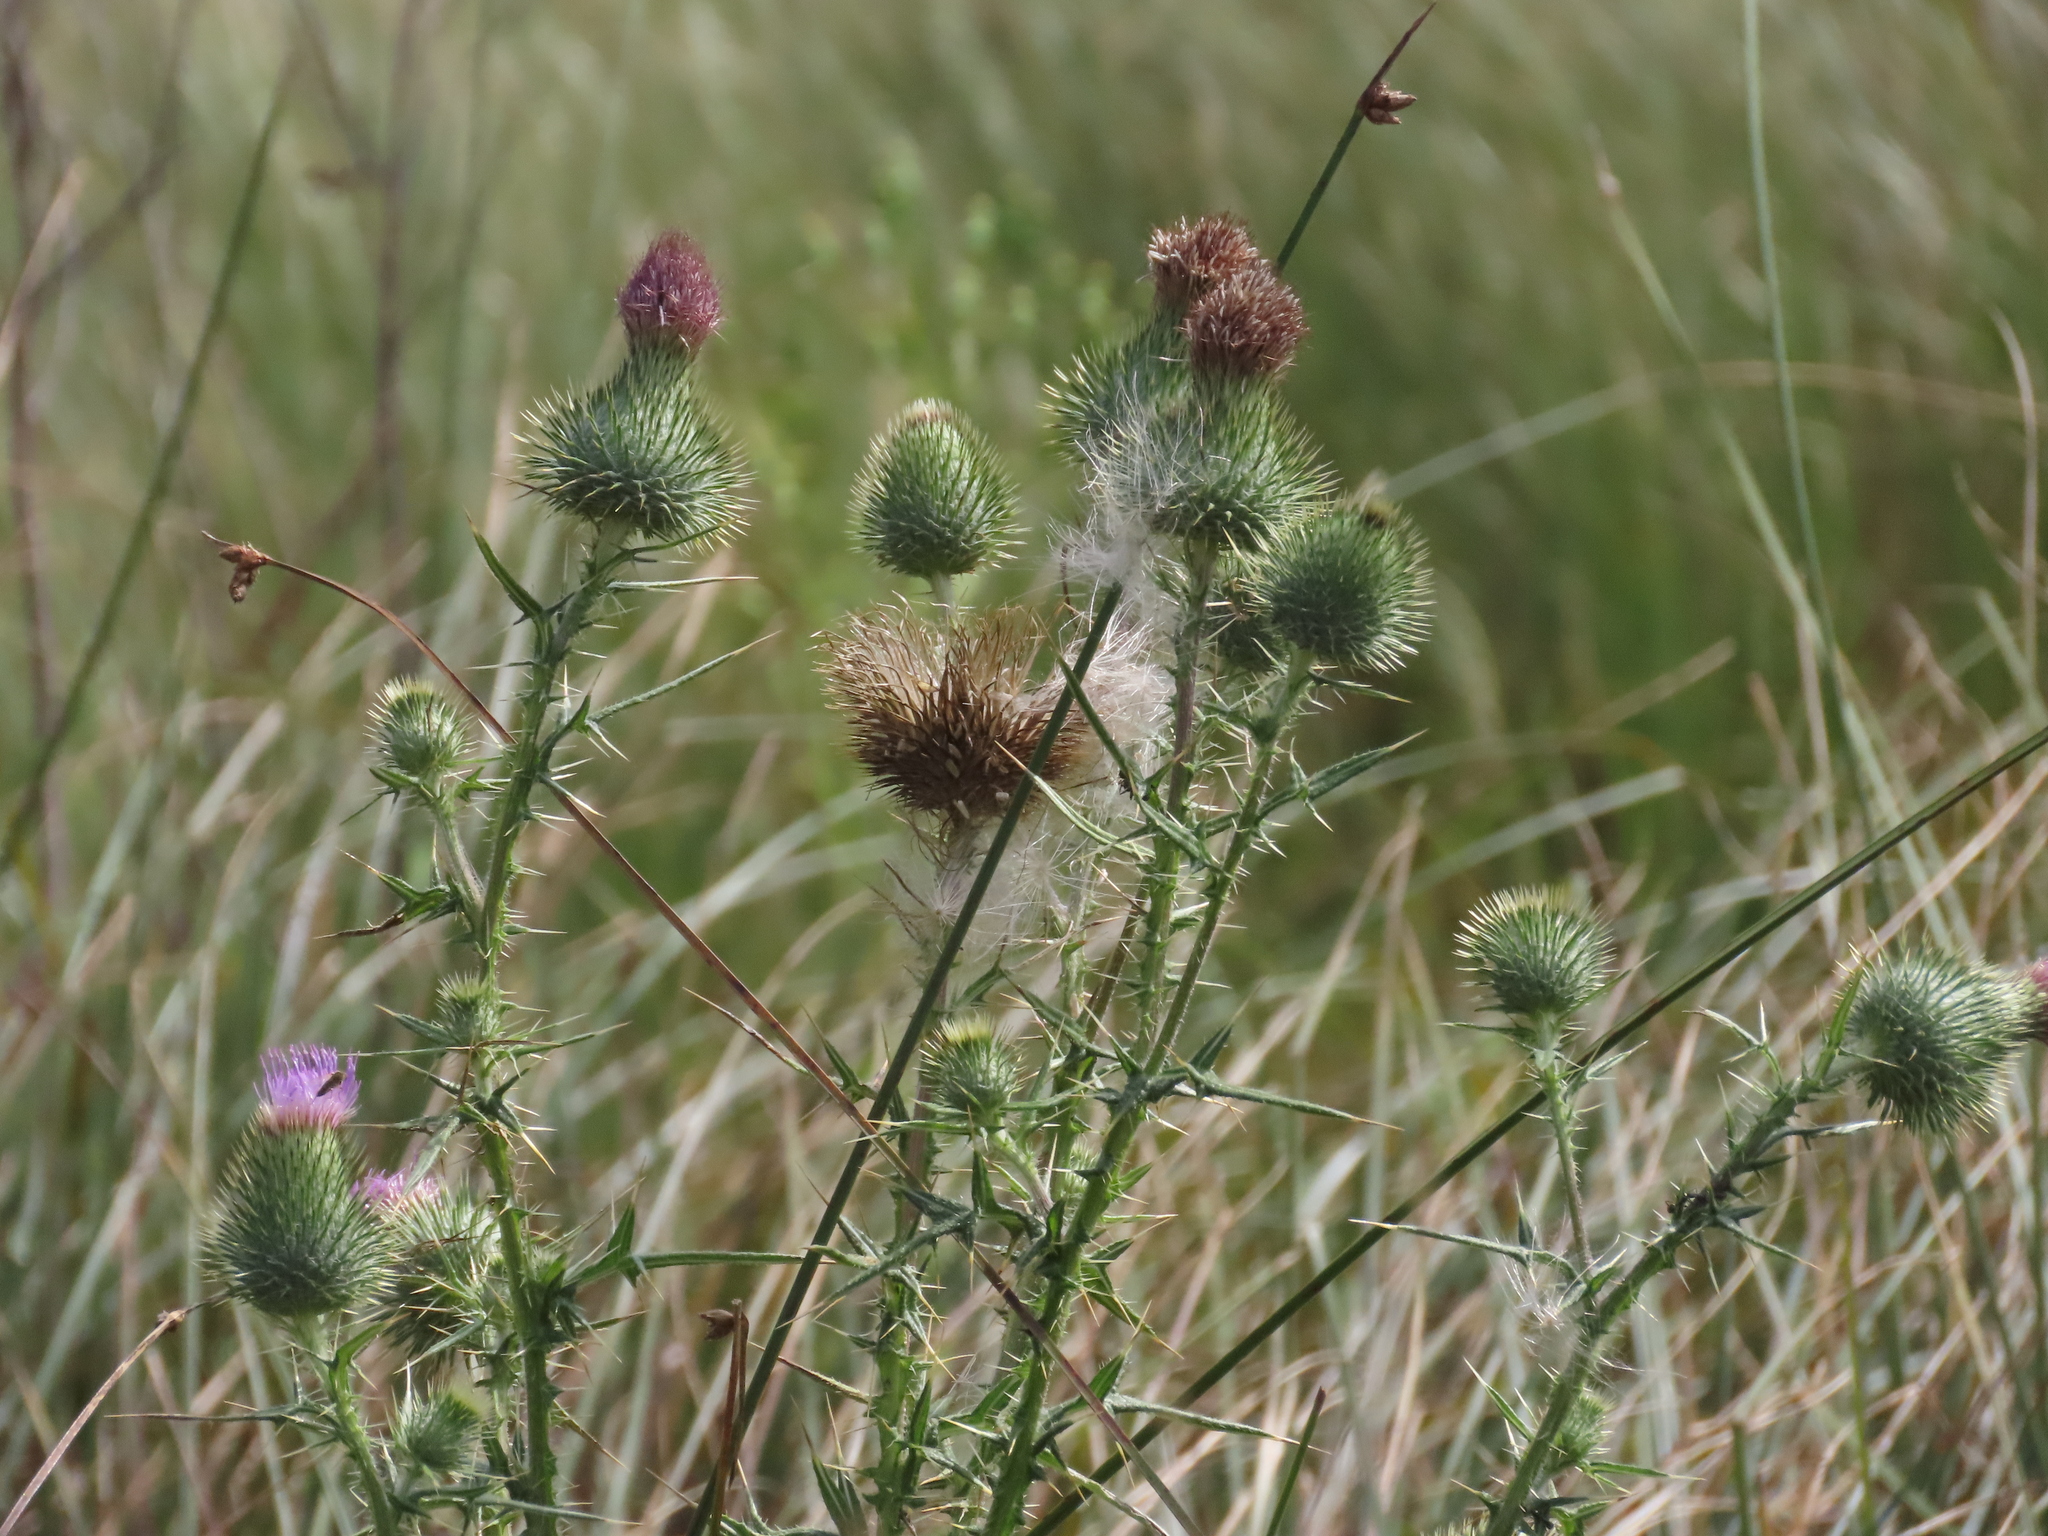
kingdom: Plantae
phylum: Tracheophyta
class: Magnoliopsida
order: Asterales
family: Asteraceae
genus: Cirsium
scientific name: Cirsium vulgare
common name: Bull thistle
